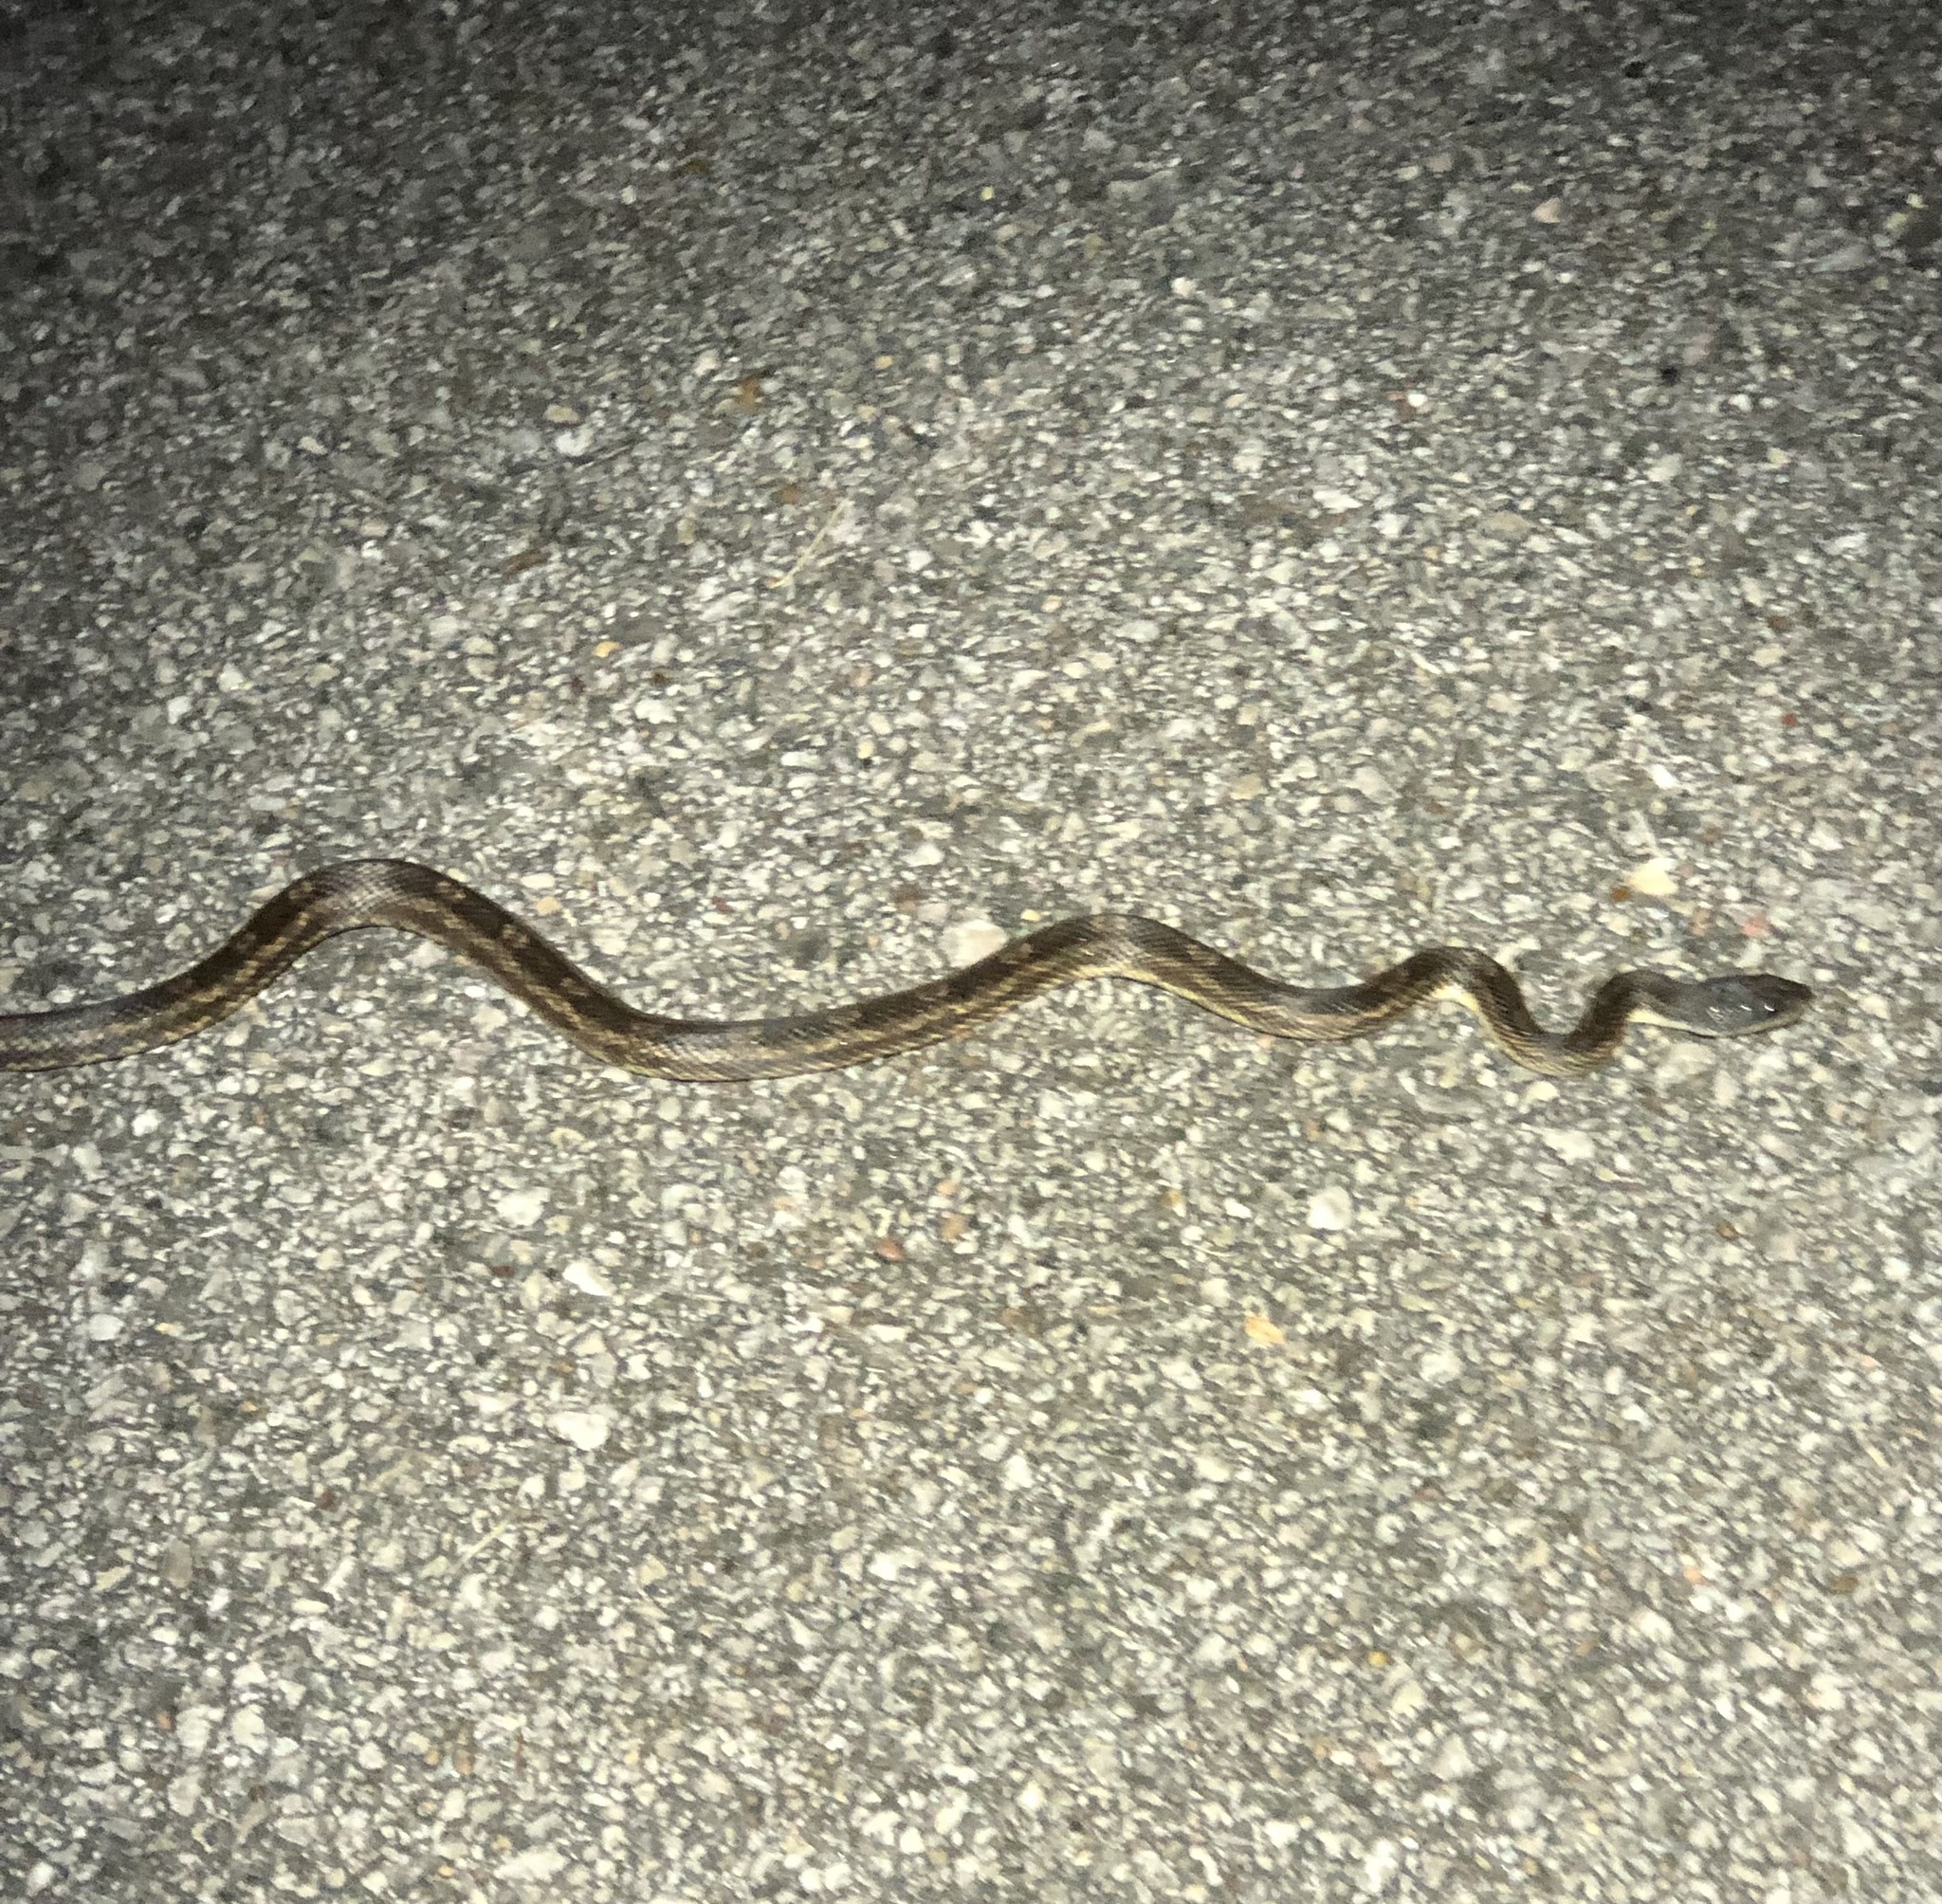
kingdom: Animalia
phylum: Chordata
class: Squamata
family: Colubridae
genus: Pantherophis
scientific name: Pantherophis obsoletus
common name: Black rat snake
